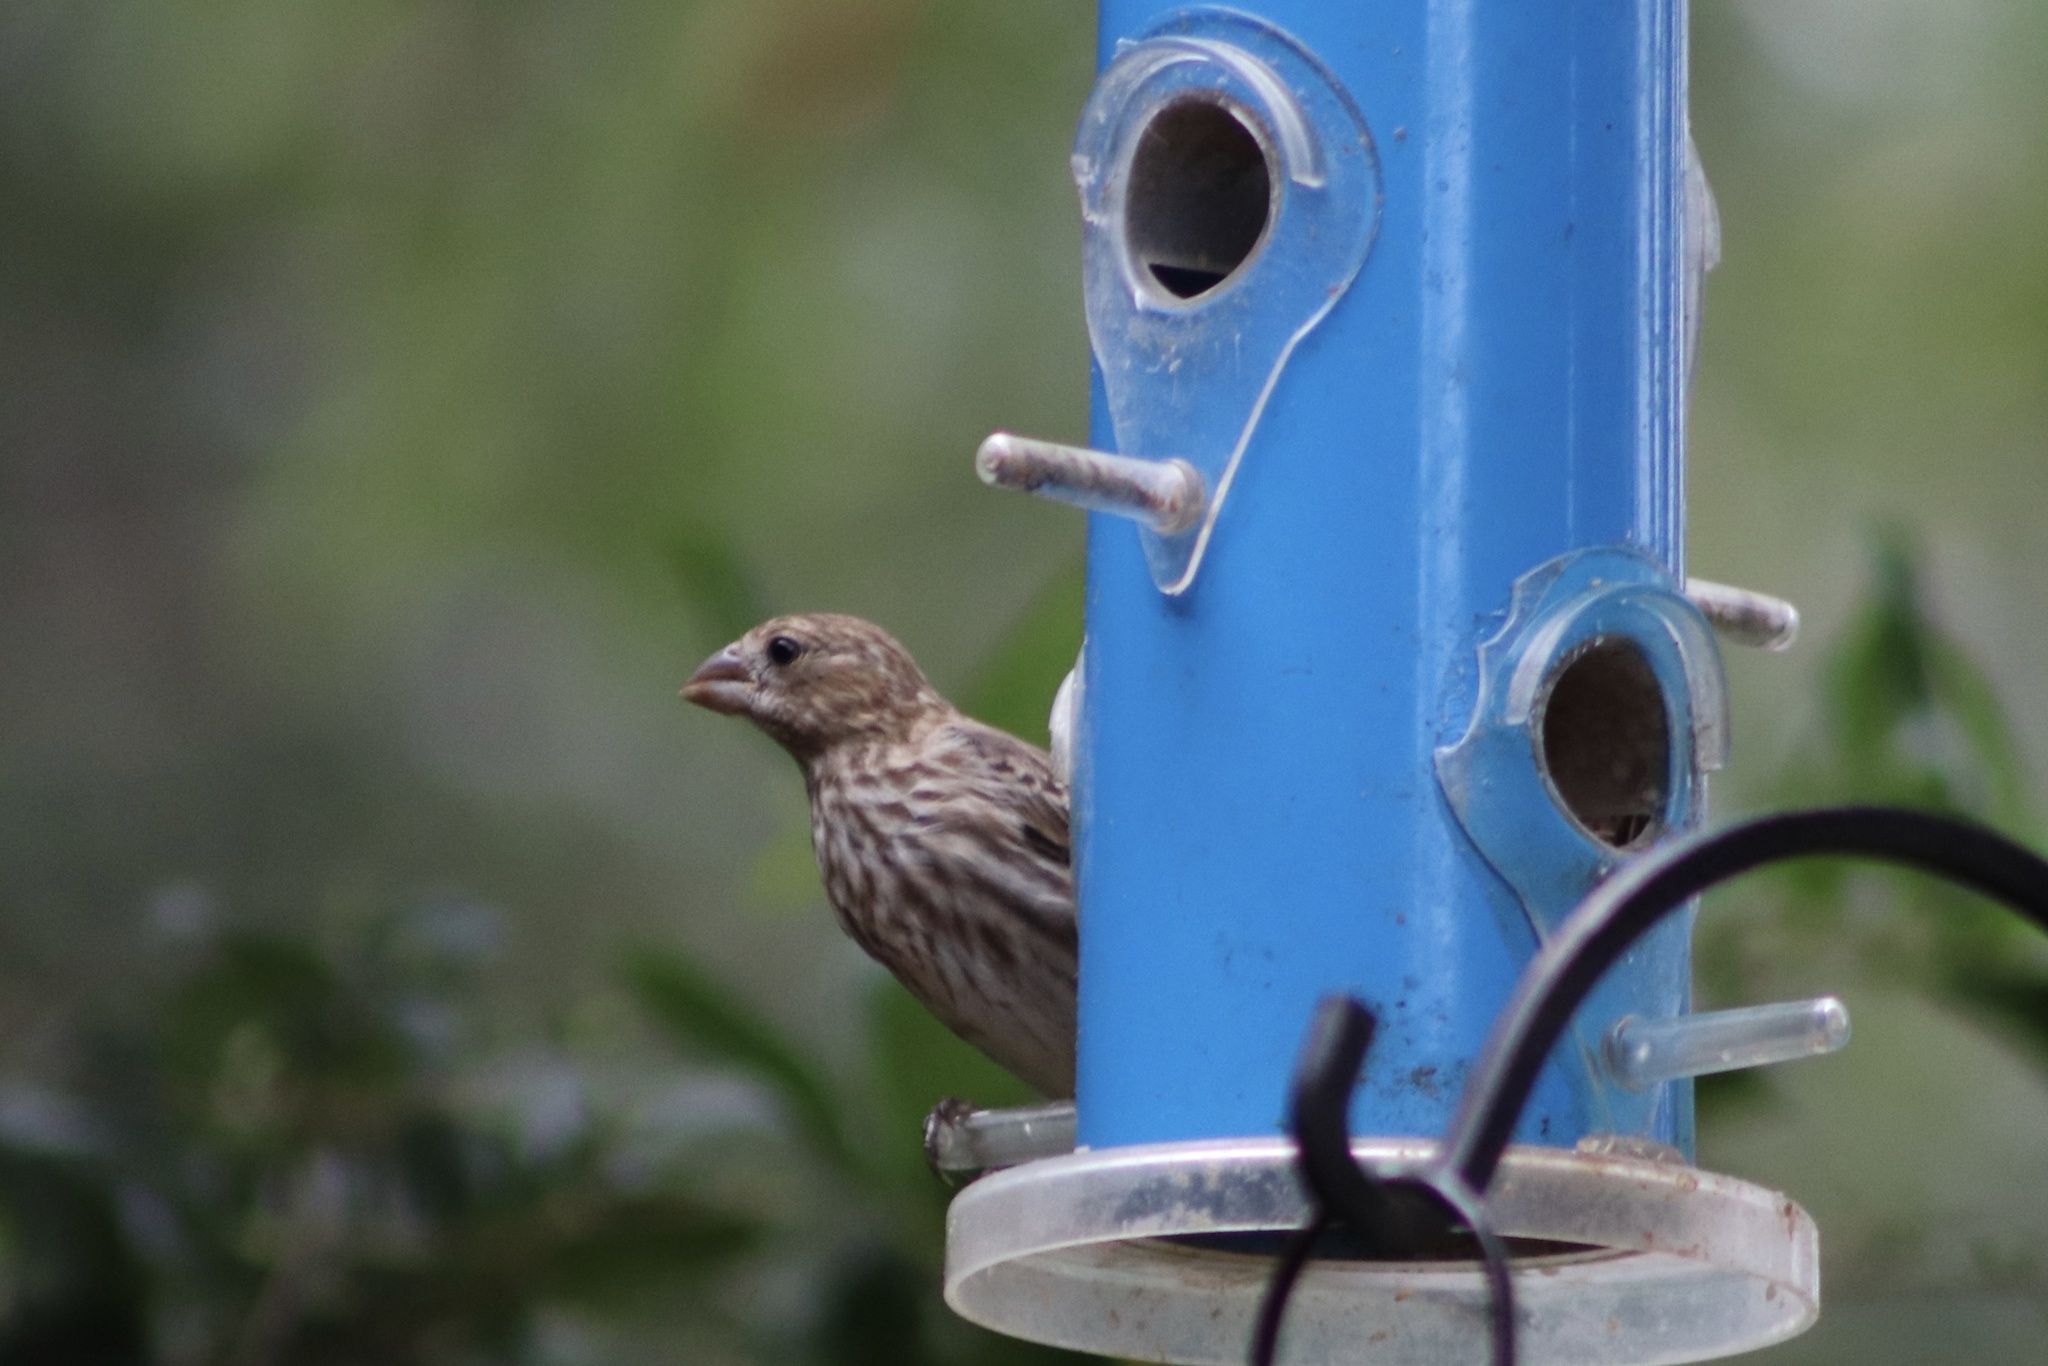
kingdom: Animalia
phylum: Chordata
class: Aves
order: Passeriformes
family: Fringillidae
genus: Haemorhous
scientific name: Haemorhous mexicanus
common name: House finch
